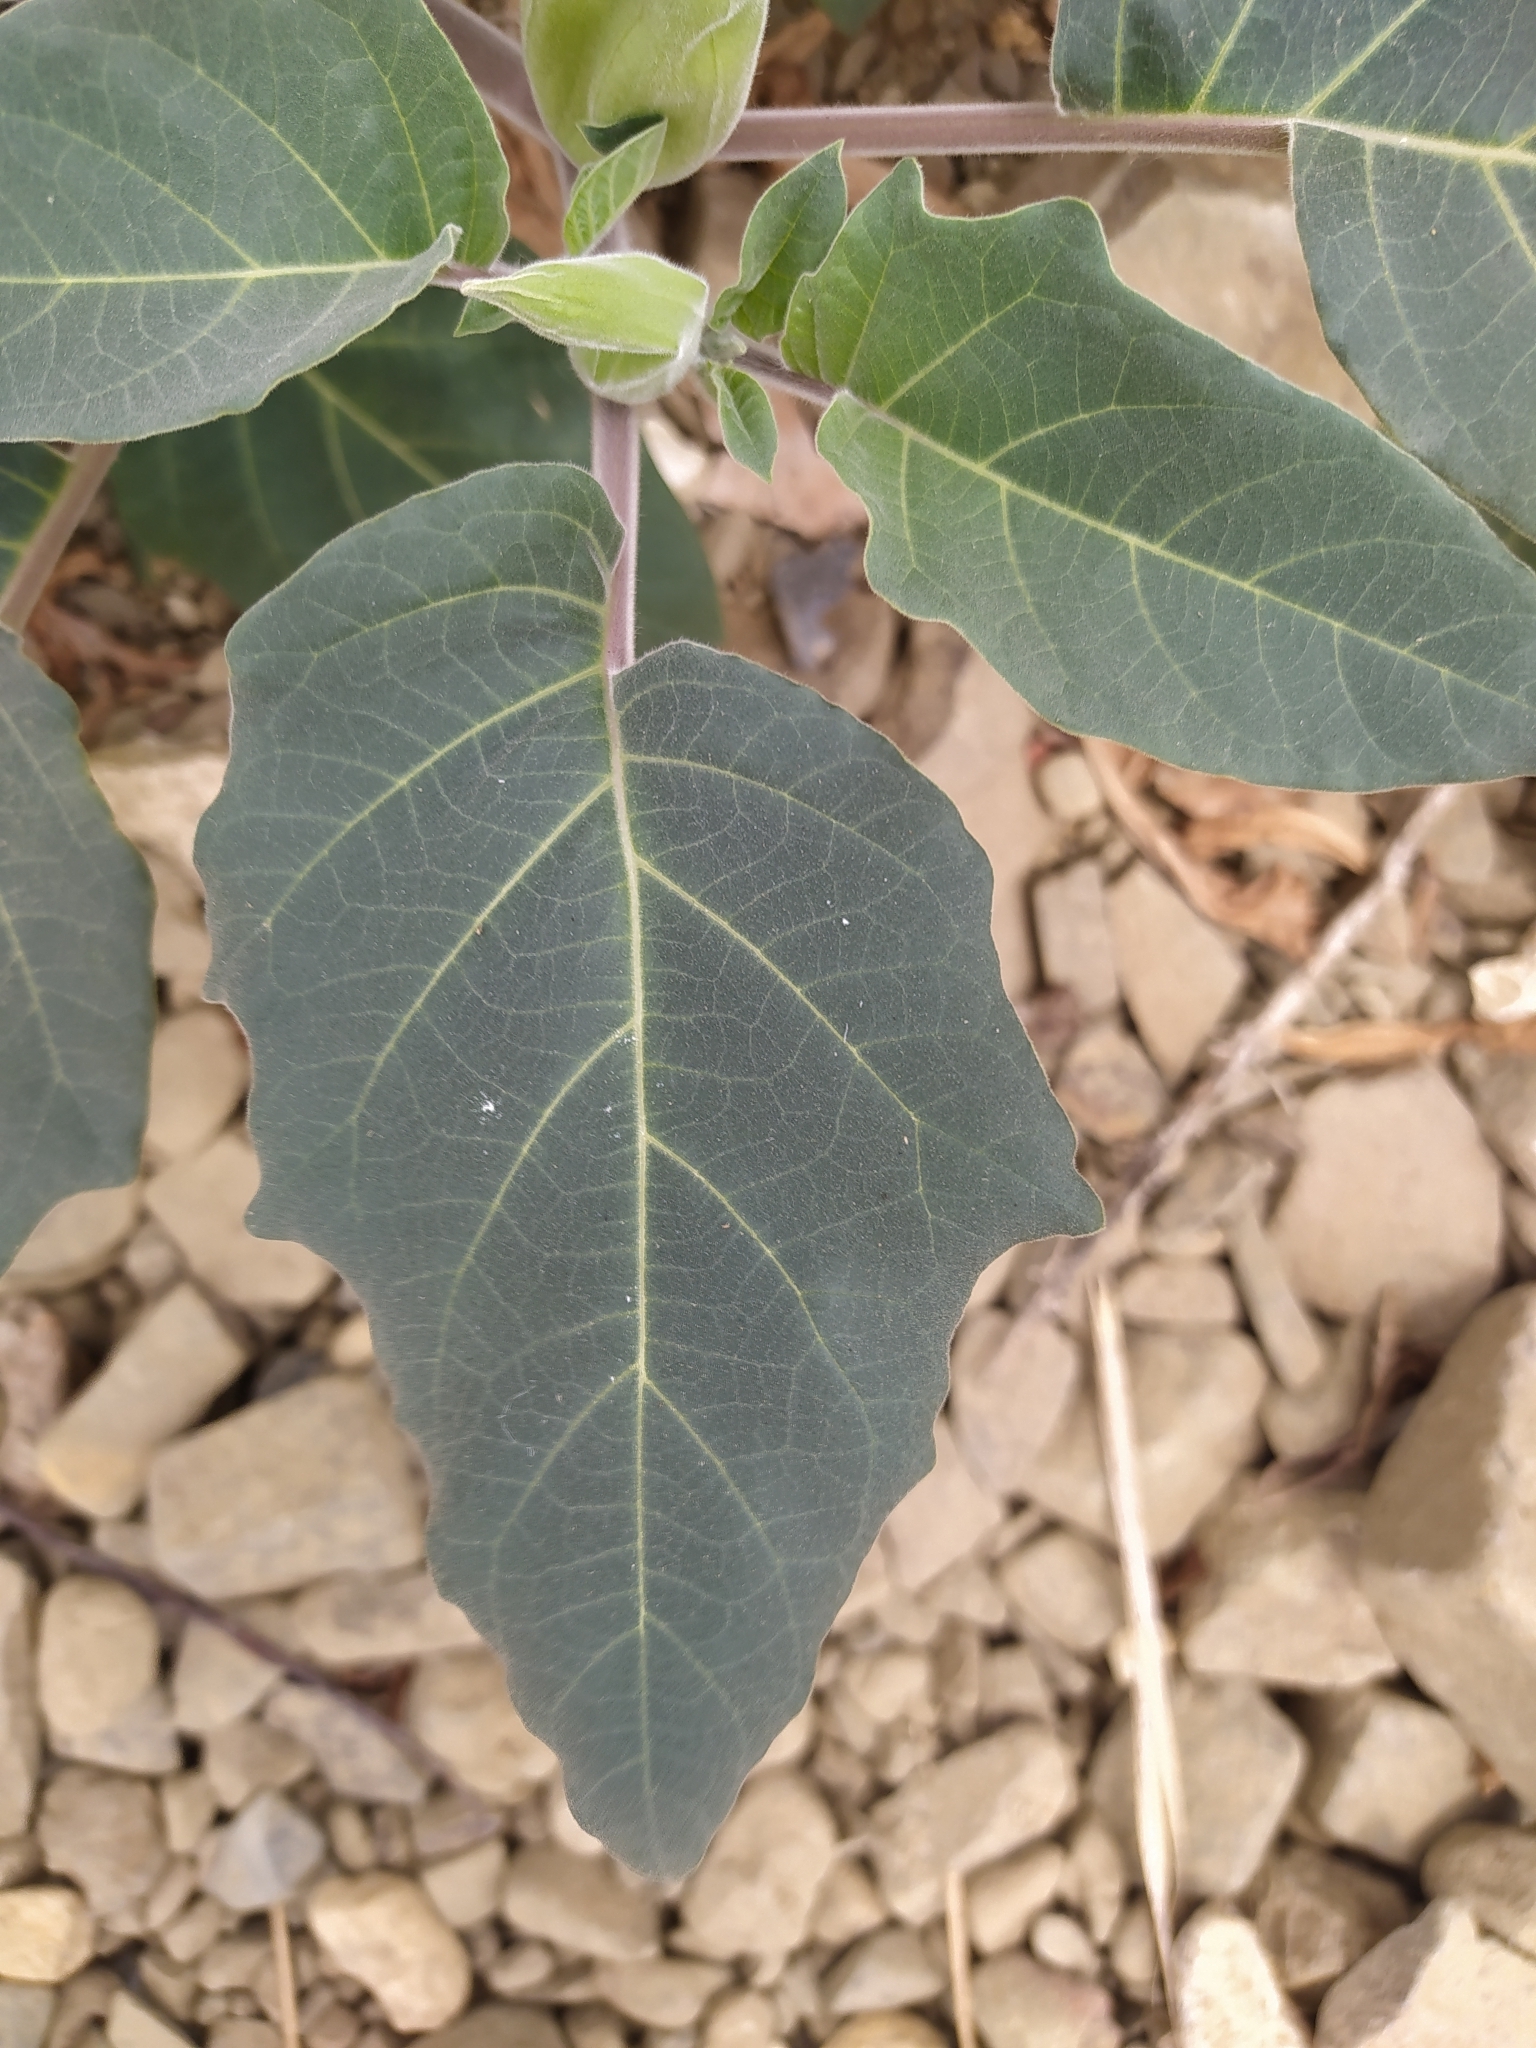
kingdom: Plantae
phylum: Tracheophyta
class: Magnoliopsida
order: Solanales
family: Solanaceae
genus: Datura
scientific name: Datura innoxia
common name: Downy thorn-apple
